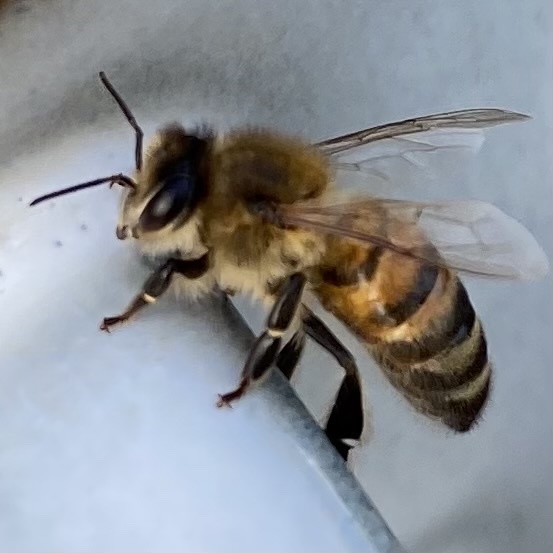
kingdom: Animalia
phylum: Arthropoda
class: Insecta
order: Hymenoptera
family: Apidae
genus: Apis
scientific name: Apis mellifera
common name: Honey bee
